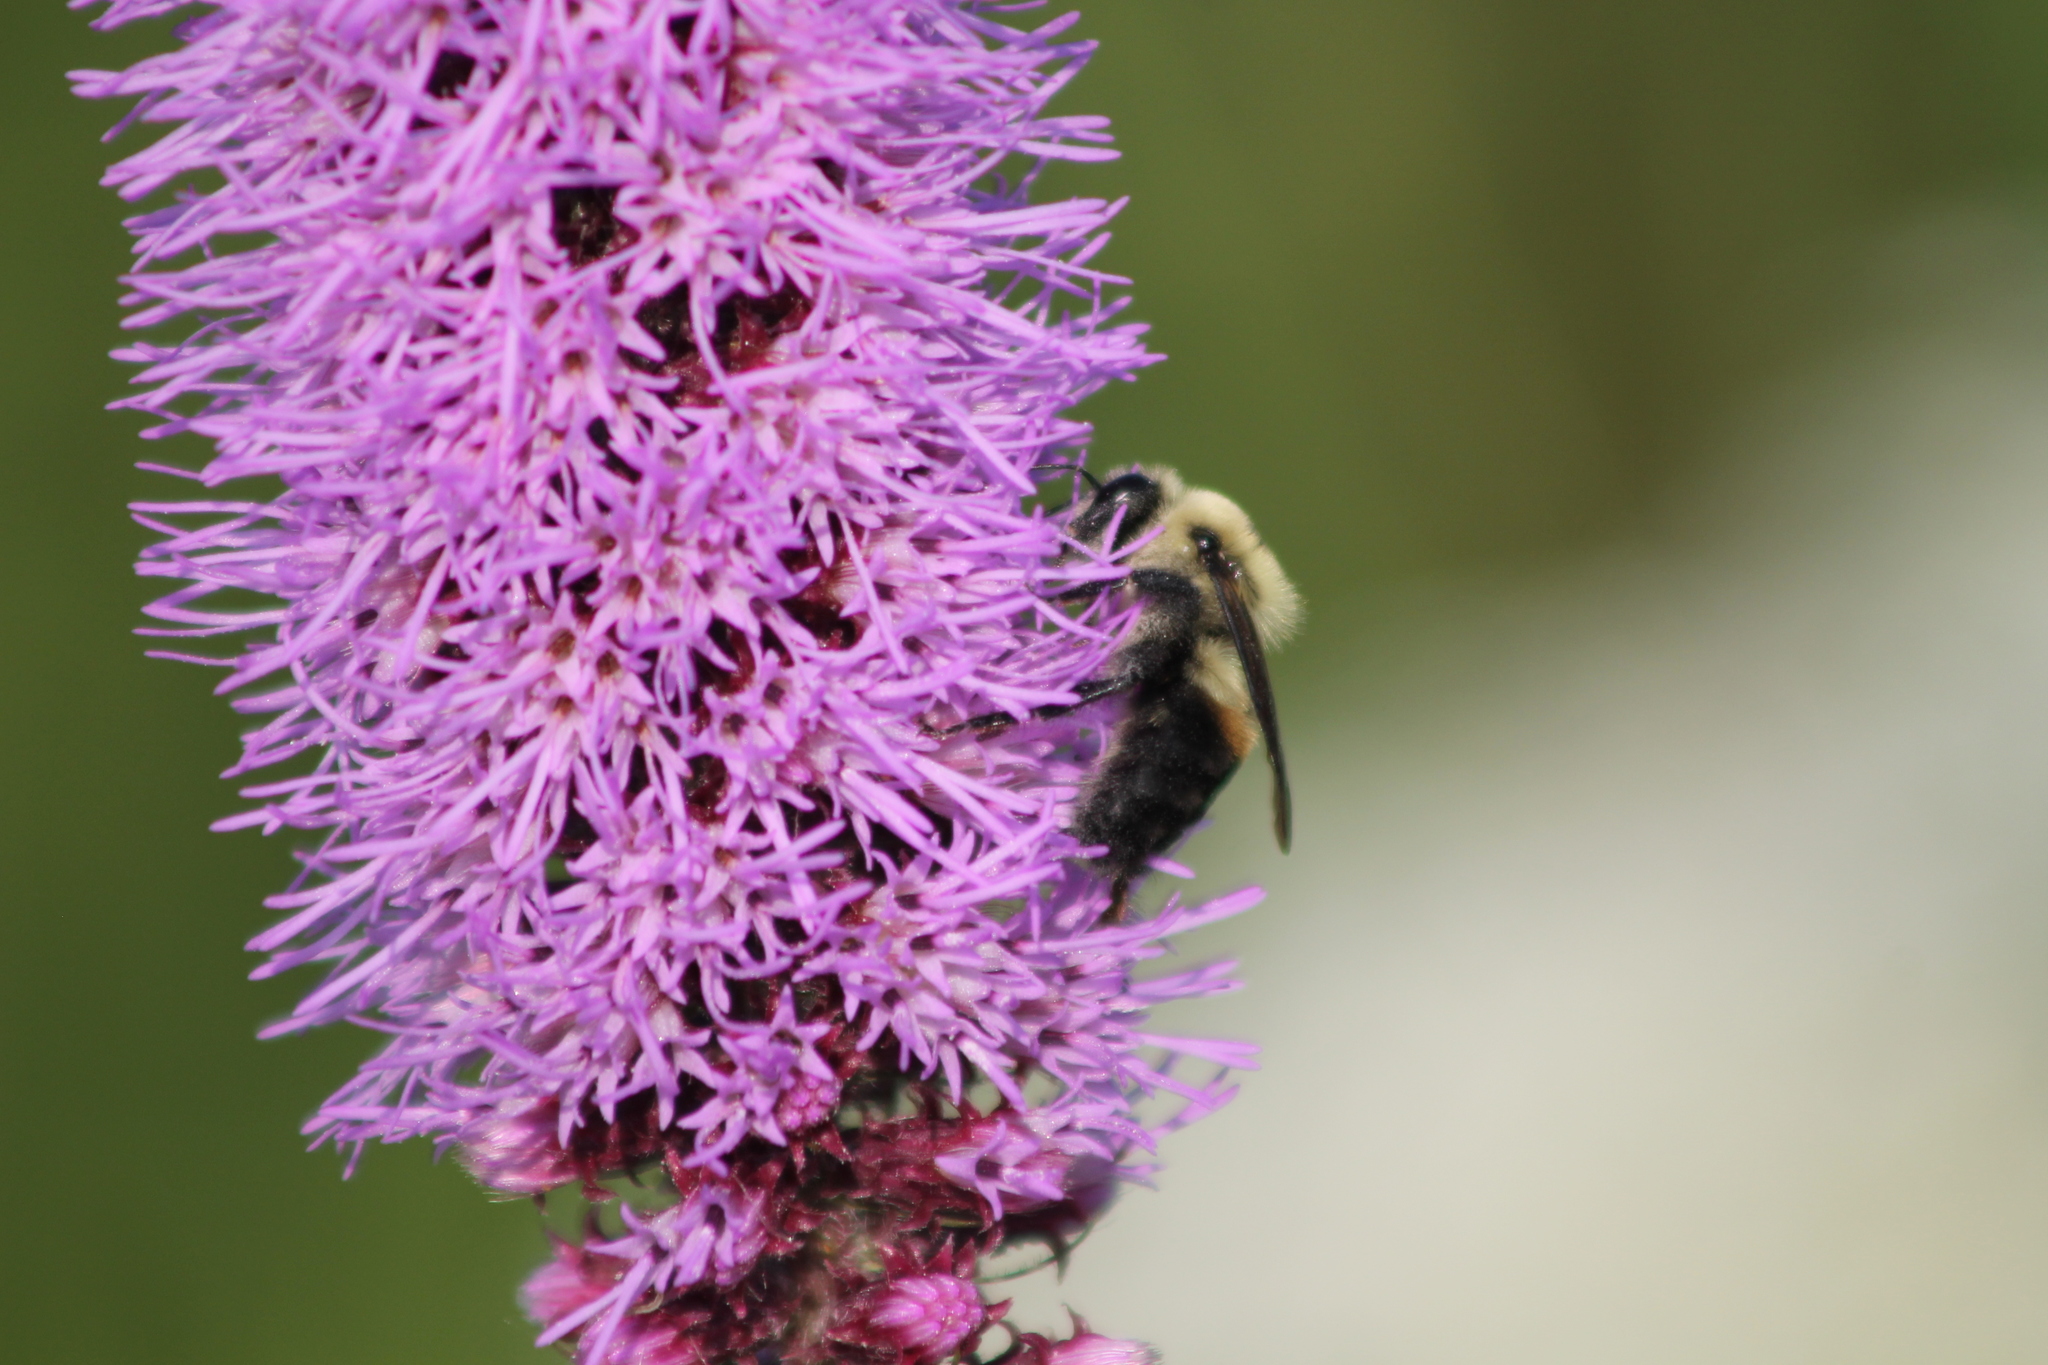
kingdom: Animalia
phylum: Arthropoda
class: Insecta
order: Hymenoptera
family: Apidae
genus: Bombus
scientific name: Bombus griseocollis
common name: Brown-belted bumble bee
